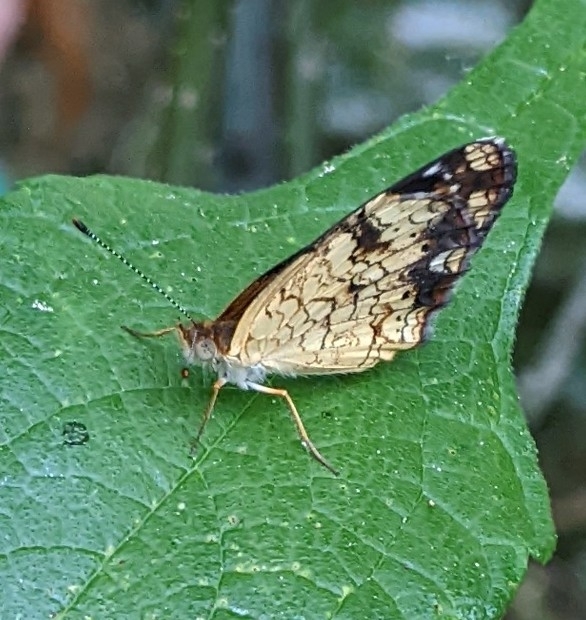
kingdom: Animalia
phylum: Arthropoda
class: Insecta
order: Lepidoptera
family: Nymphalidae
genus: Phyciodes
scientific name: Phyciodes tharos
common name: Pearl crescent
